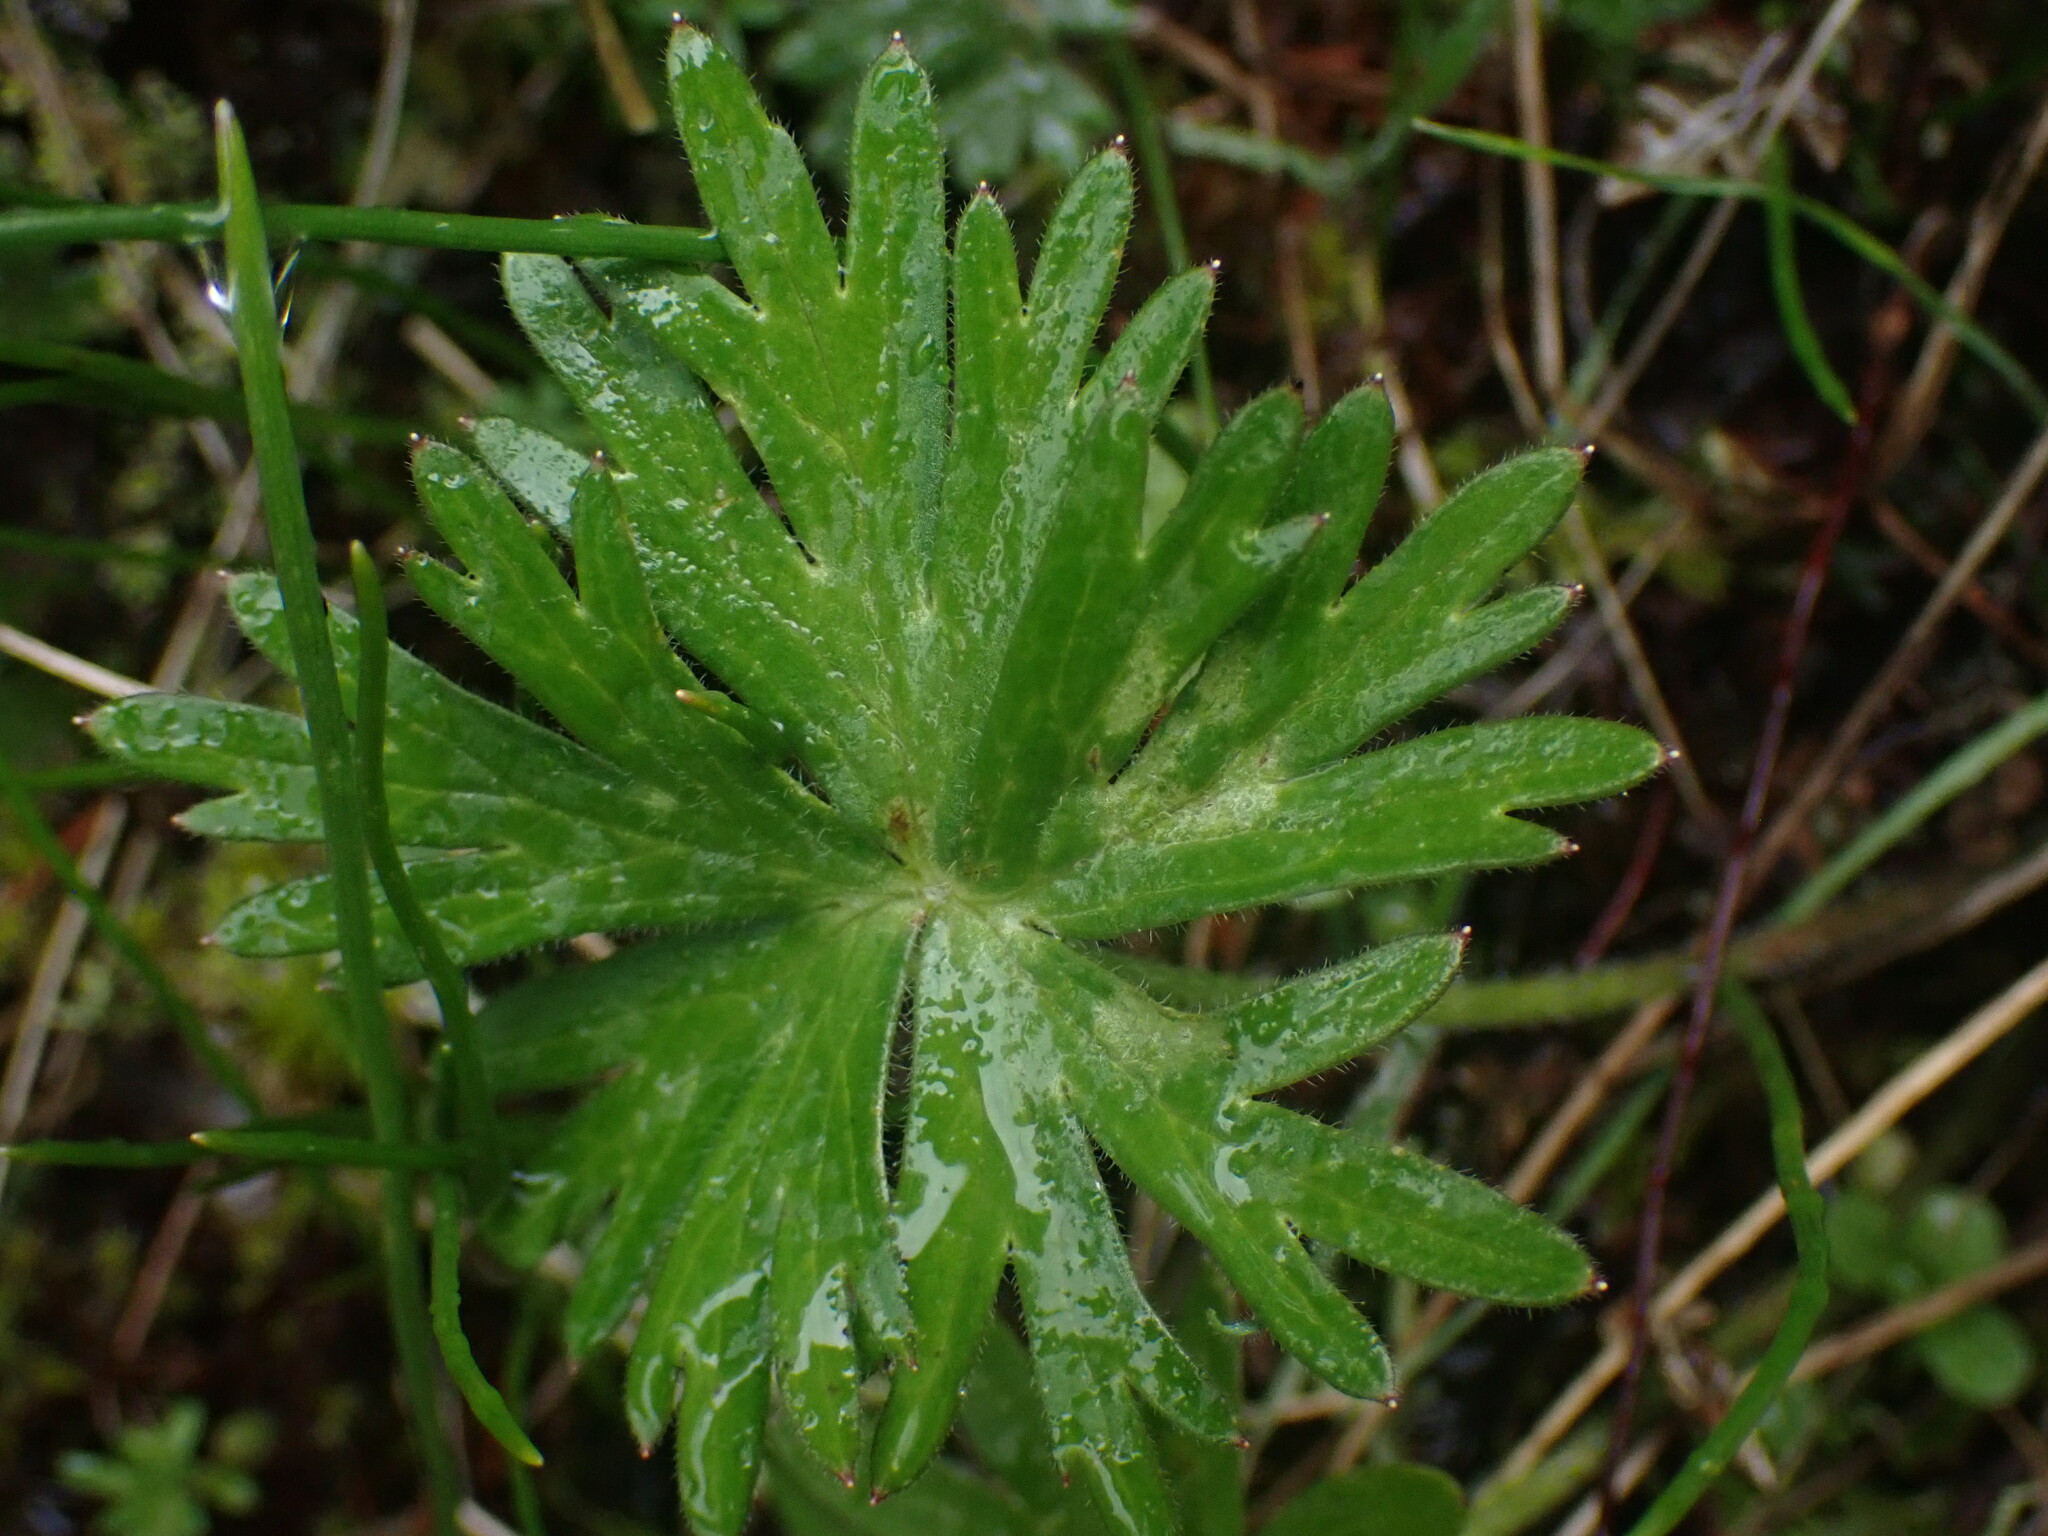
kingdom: Plantae
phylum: Tracheophyta
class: Magnoliopsida
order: Ranunculales
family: Ranunculaceae
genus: Delphinium
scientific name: Delphinium menziesii
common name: Menzies's larkspur
